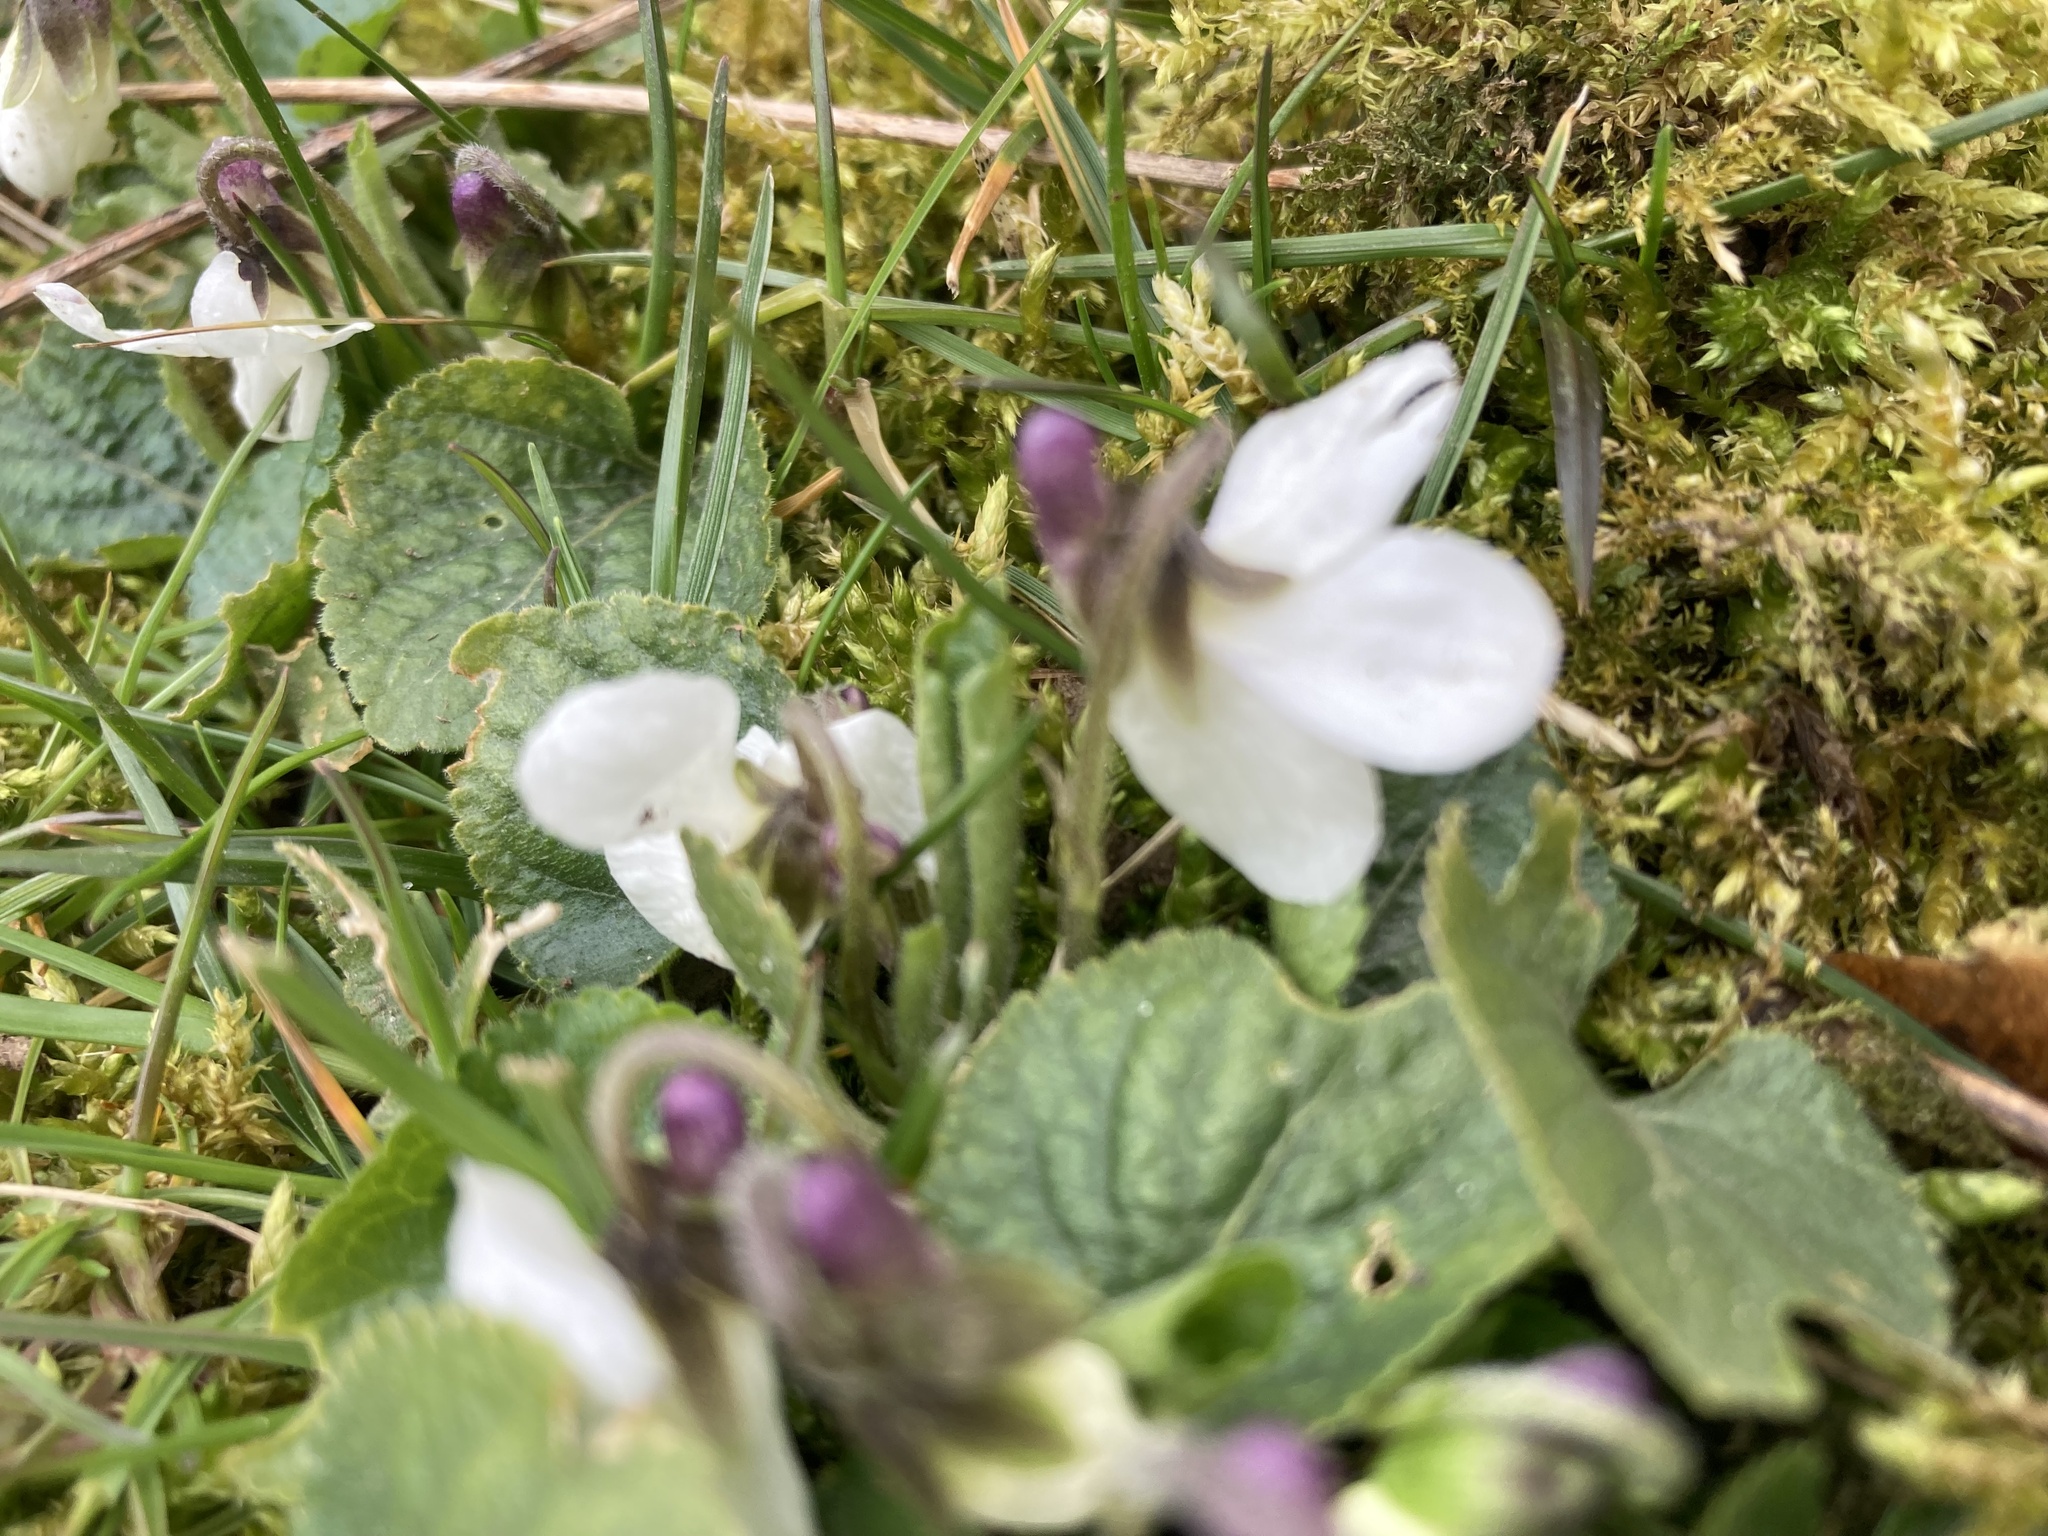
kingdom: Plantae
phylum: Tracheophyta
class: Magnoliopsida
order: Malpighiales
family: Violaceae
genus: Viola
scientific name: Viola odorata
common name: Sweet violet
